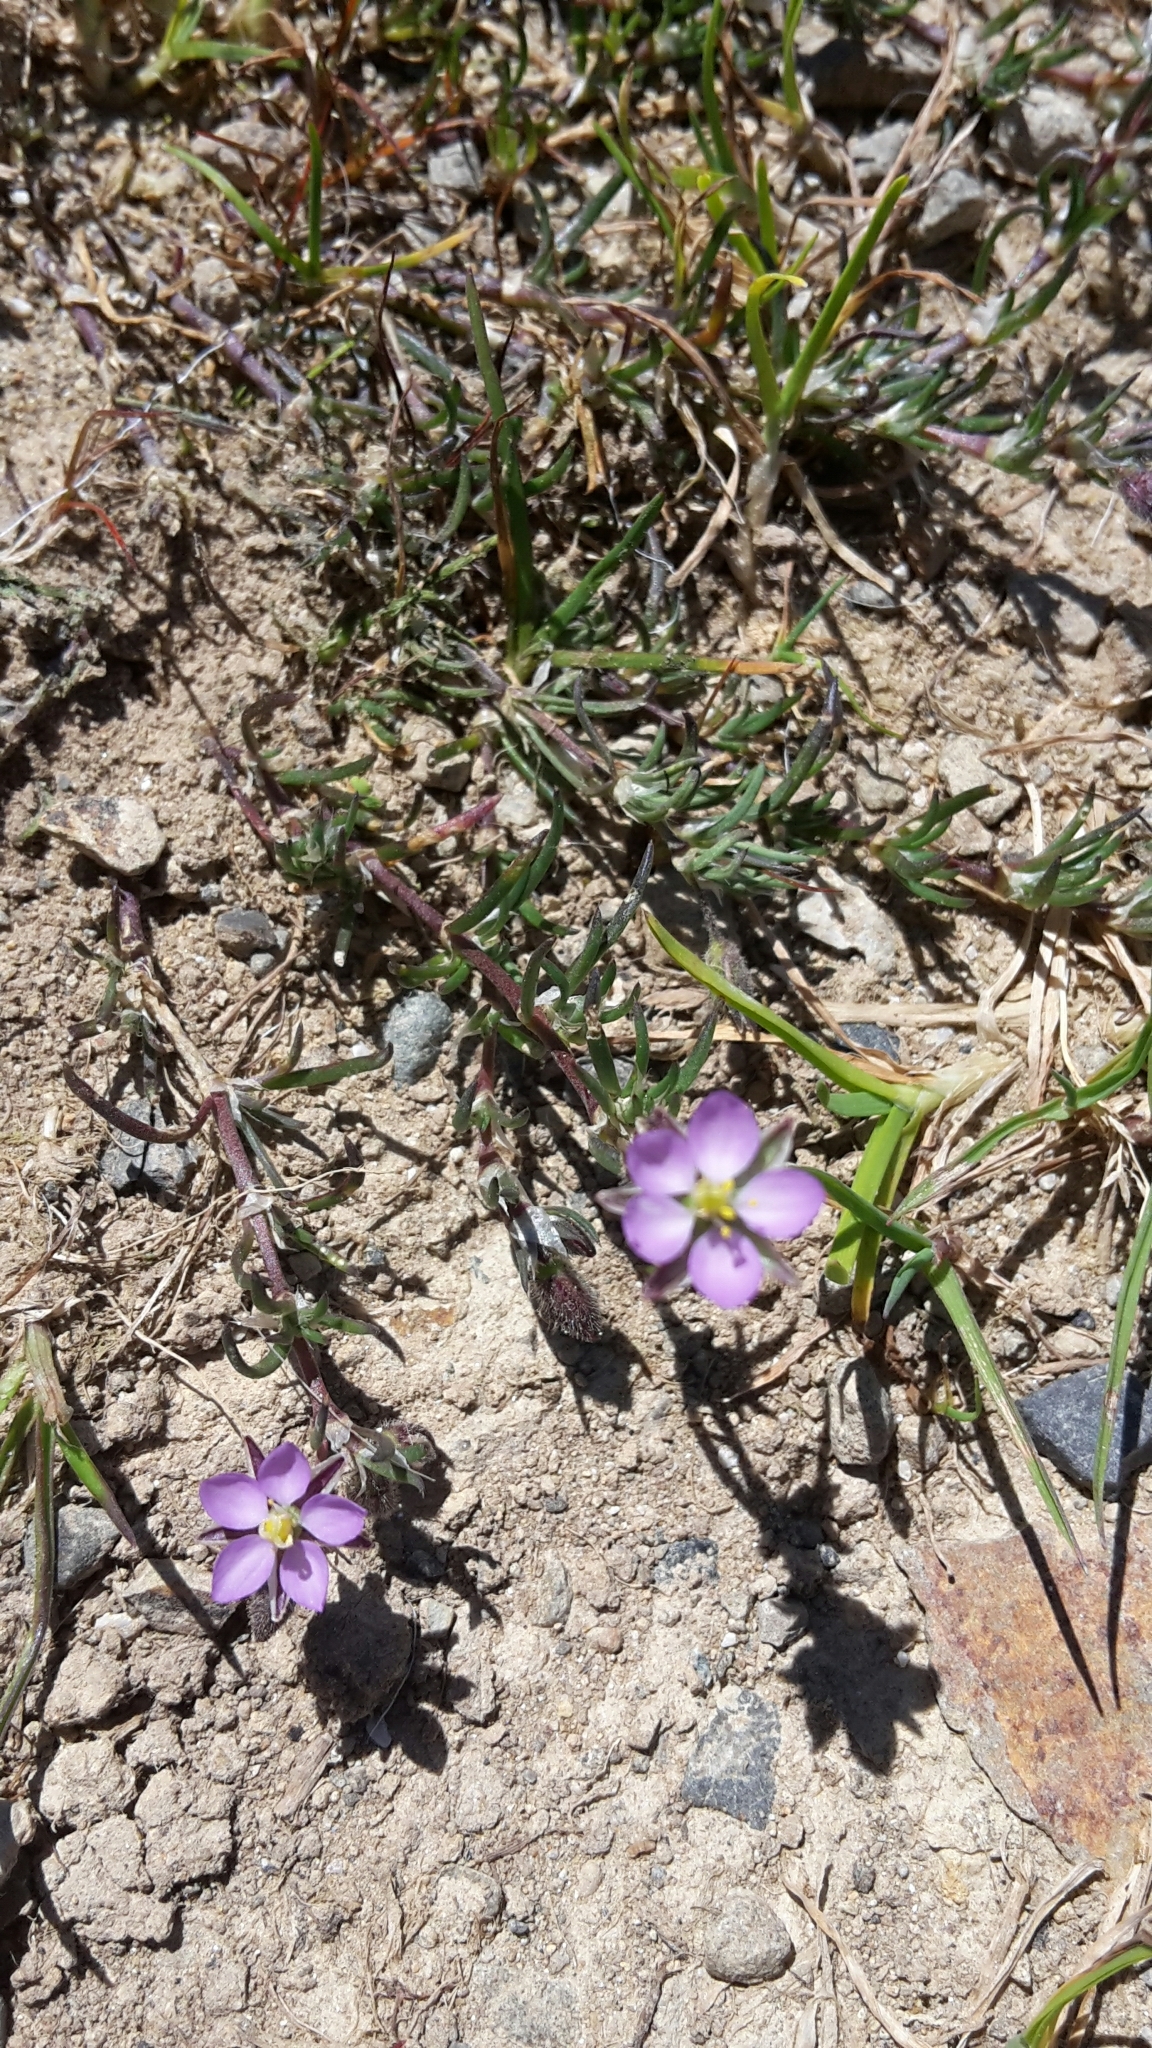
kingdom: Plantae
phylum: Tracheophyta
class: Magnoliopsida
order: Caryophyllales
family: Caryophyllaceae
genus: Spergularia
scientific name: Spergularia rubra
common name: Red sand-spurrey
